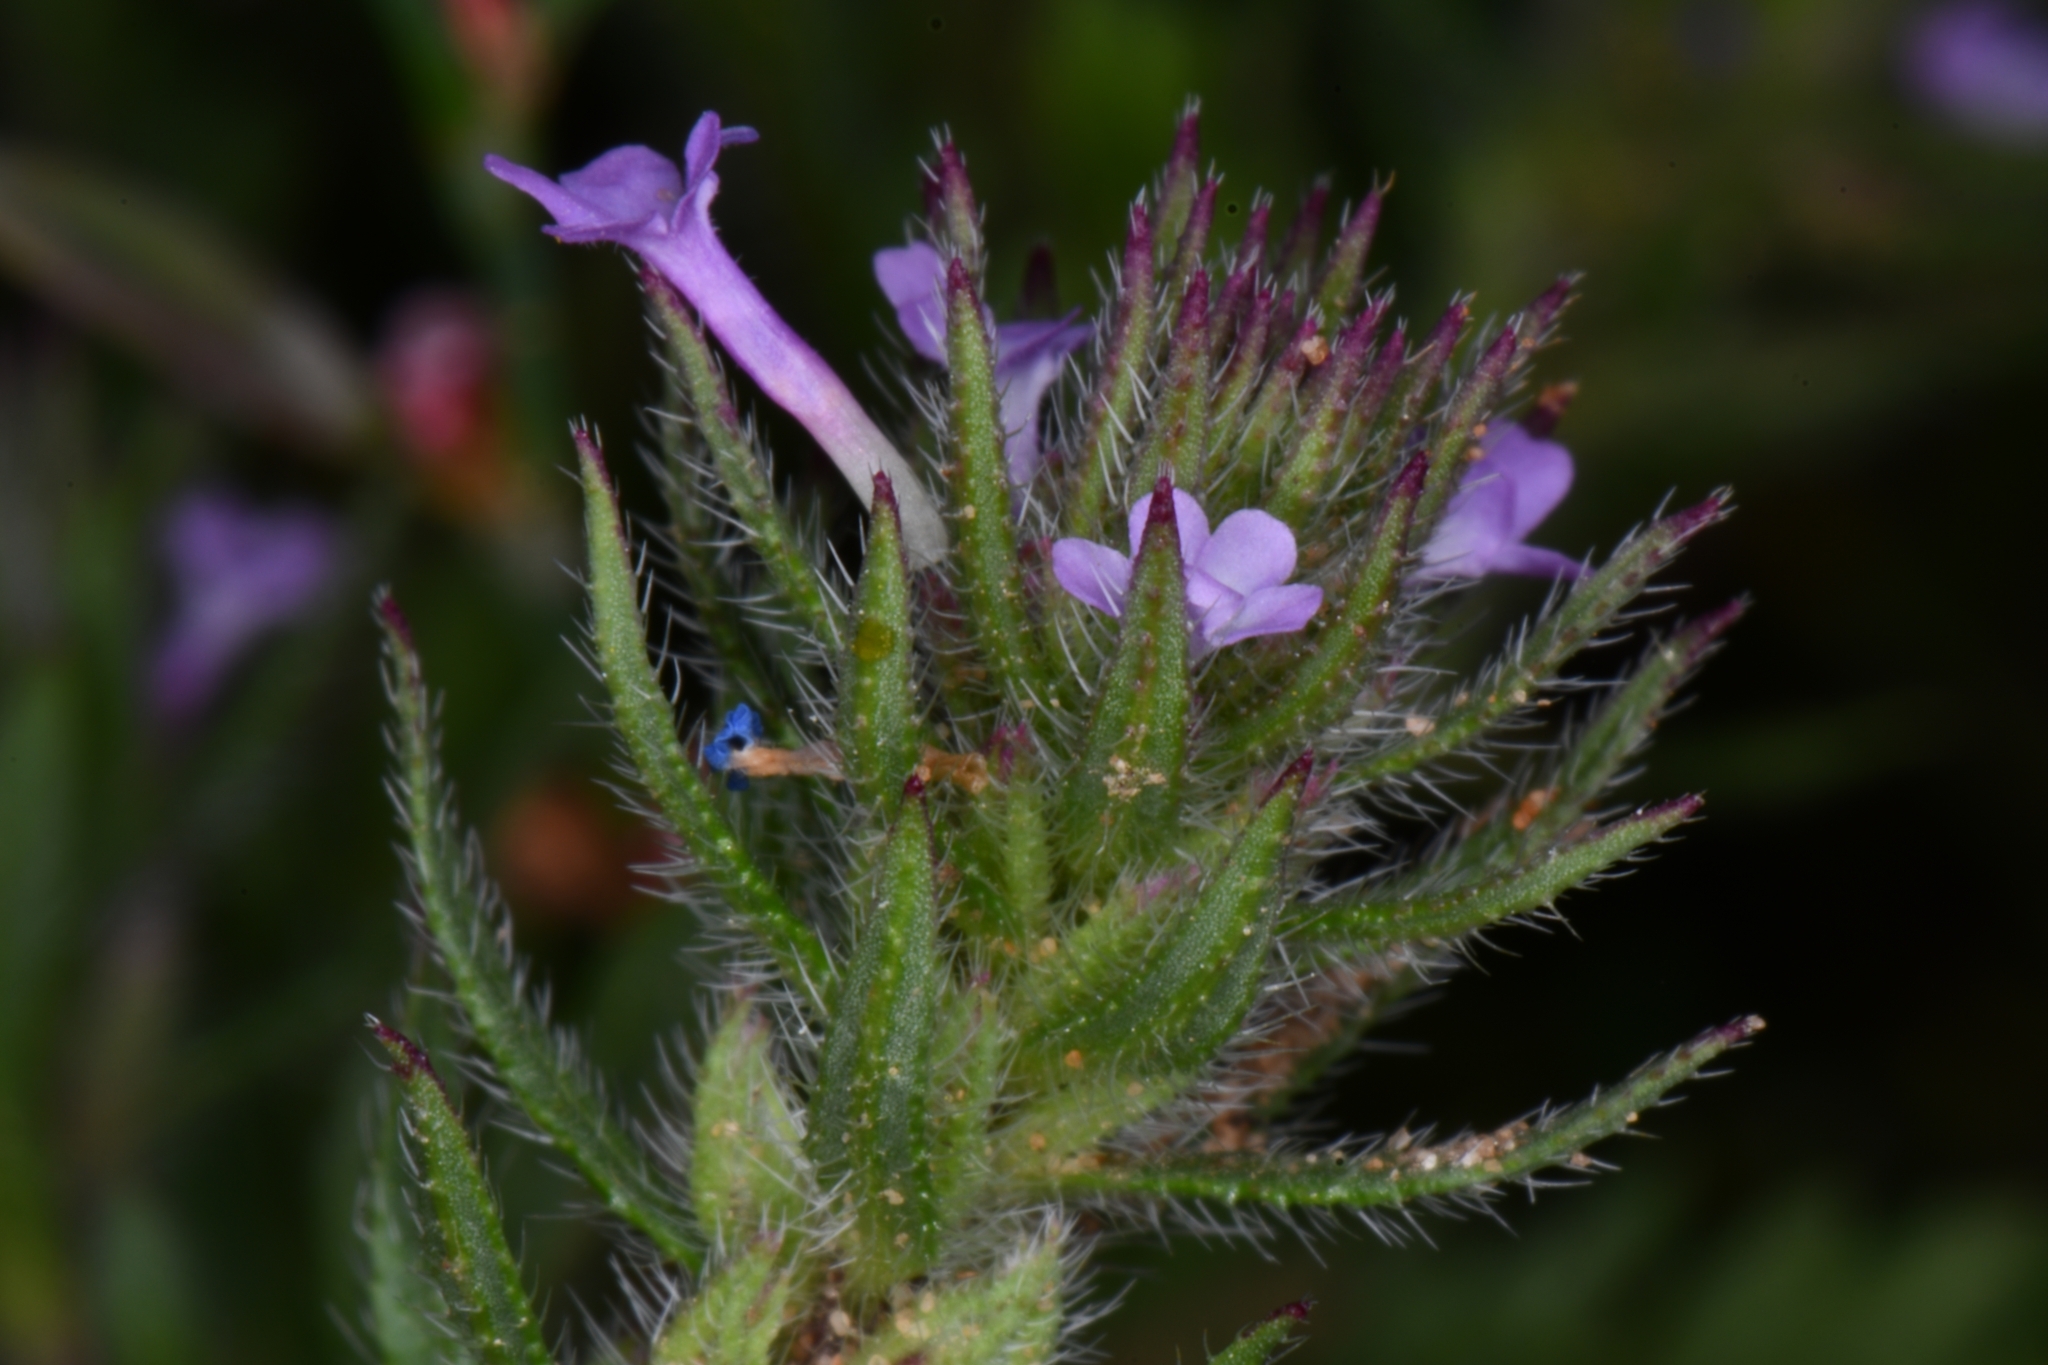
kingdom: Plantae
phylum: Tracheophyta
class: Magnoliopsida
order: Lamiales
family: Verbenaceae
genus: Verbena
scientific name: Verbena bracteata
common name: Bracted vervain
